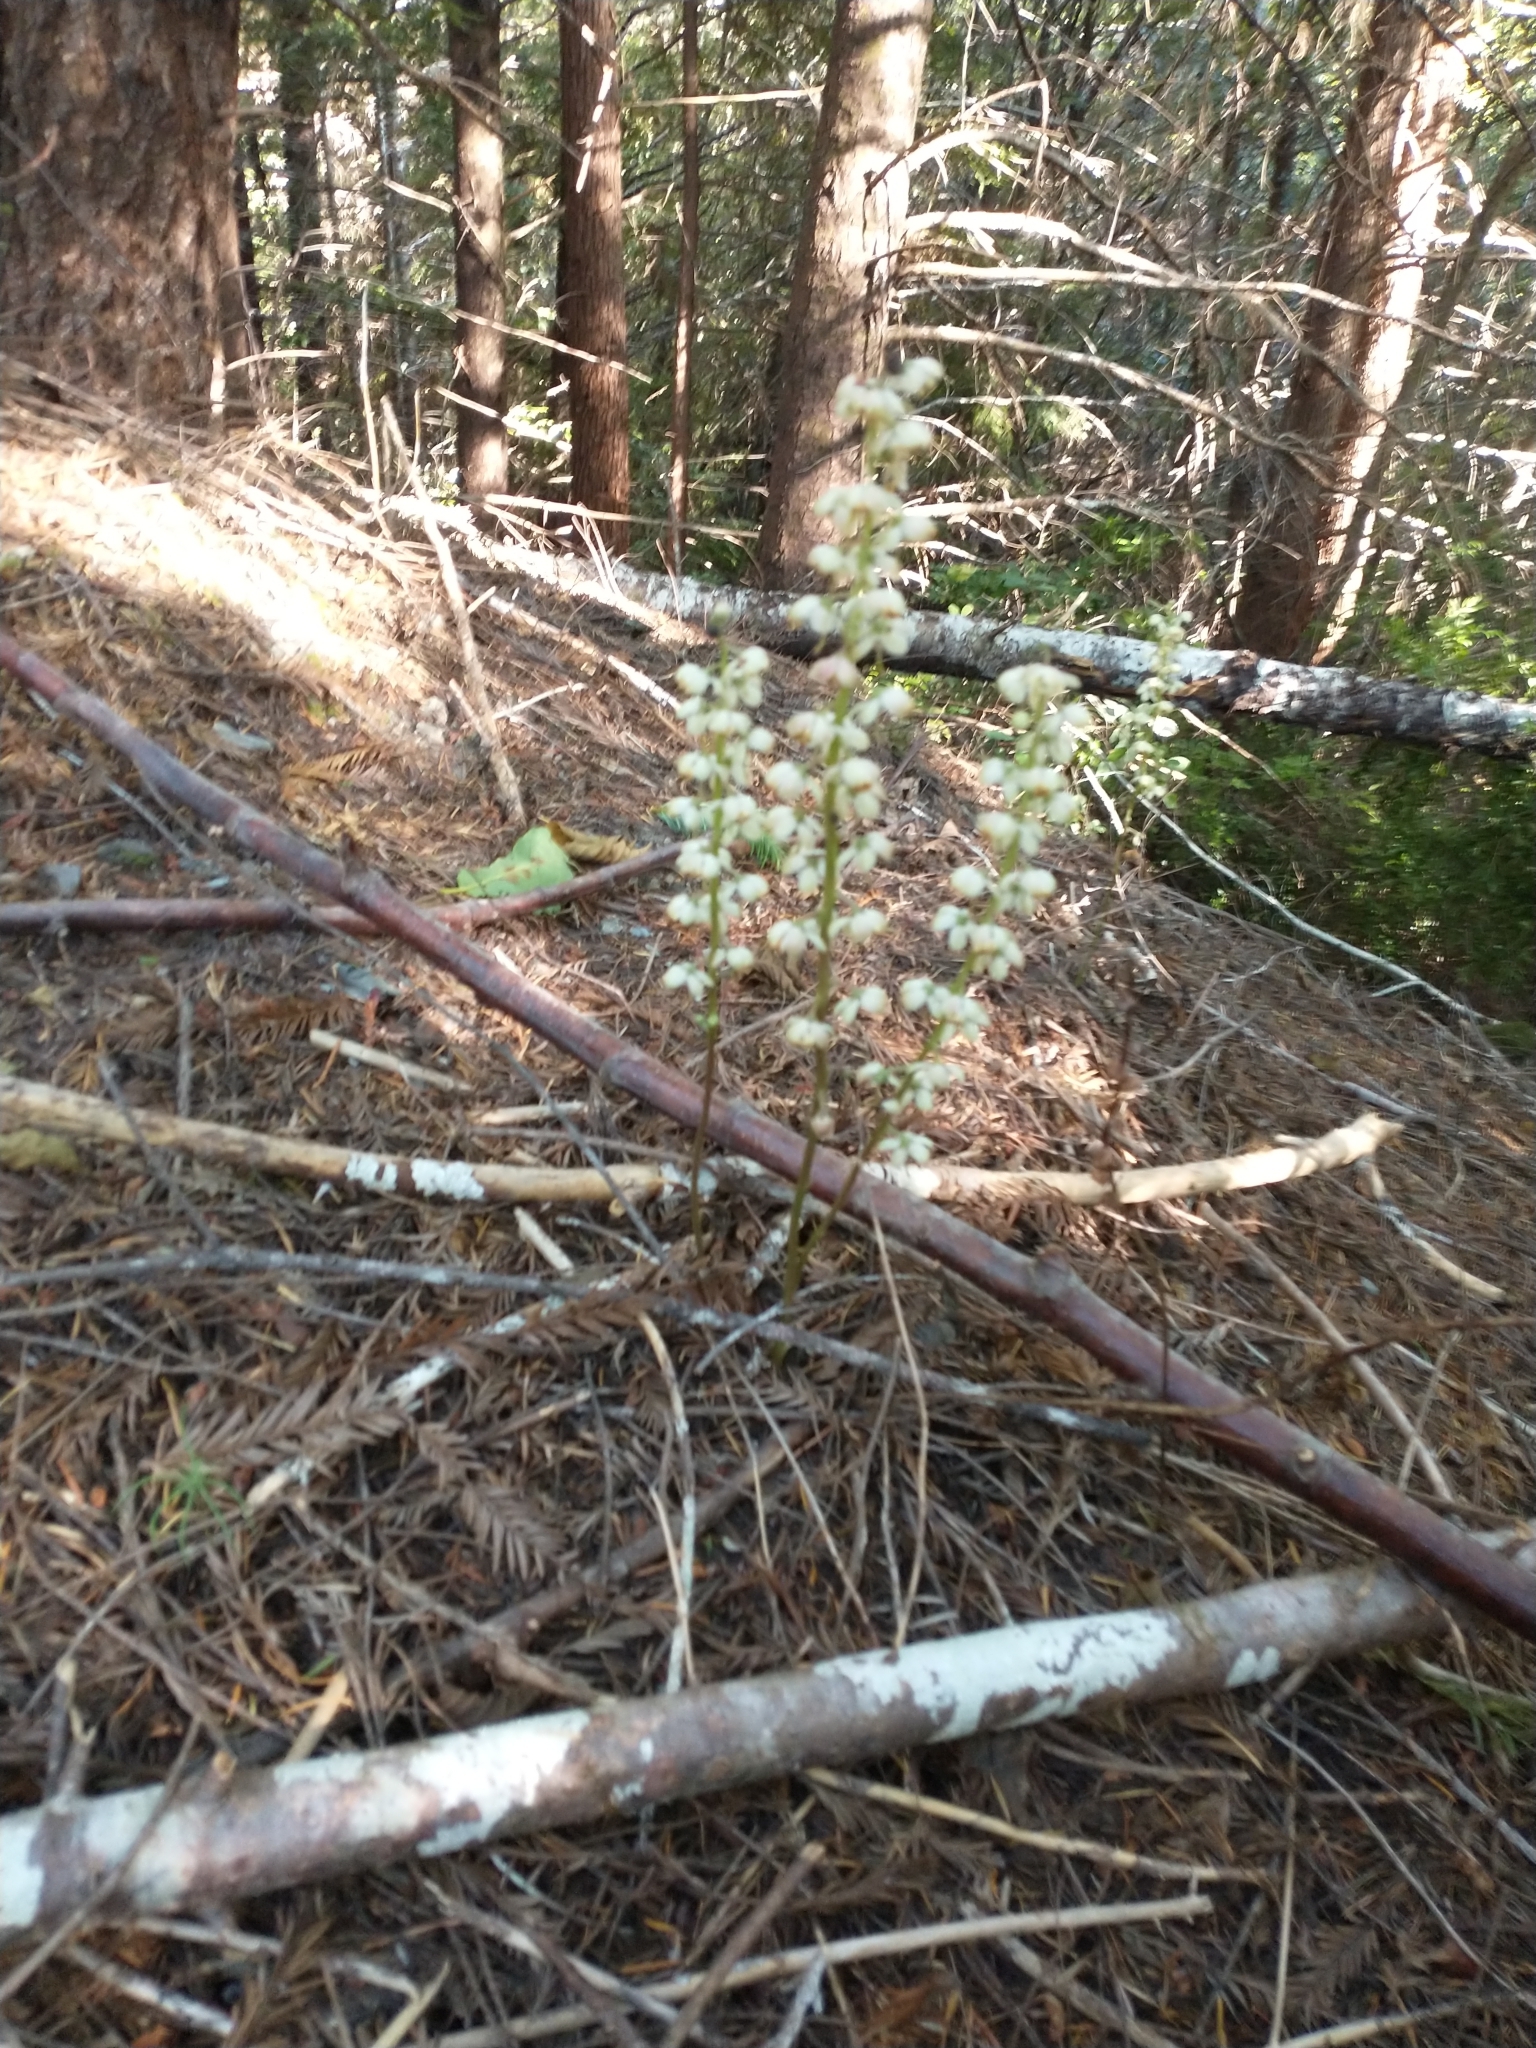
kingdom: Plantae
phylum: Tracheophyta
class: Magnoliopsida
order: Ericales
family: Ericaceae
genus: Pyrola
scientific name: Pyrola aphylla
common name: Leafless wintergreen
